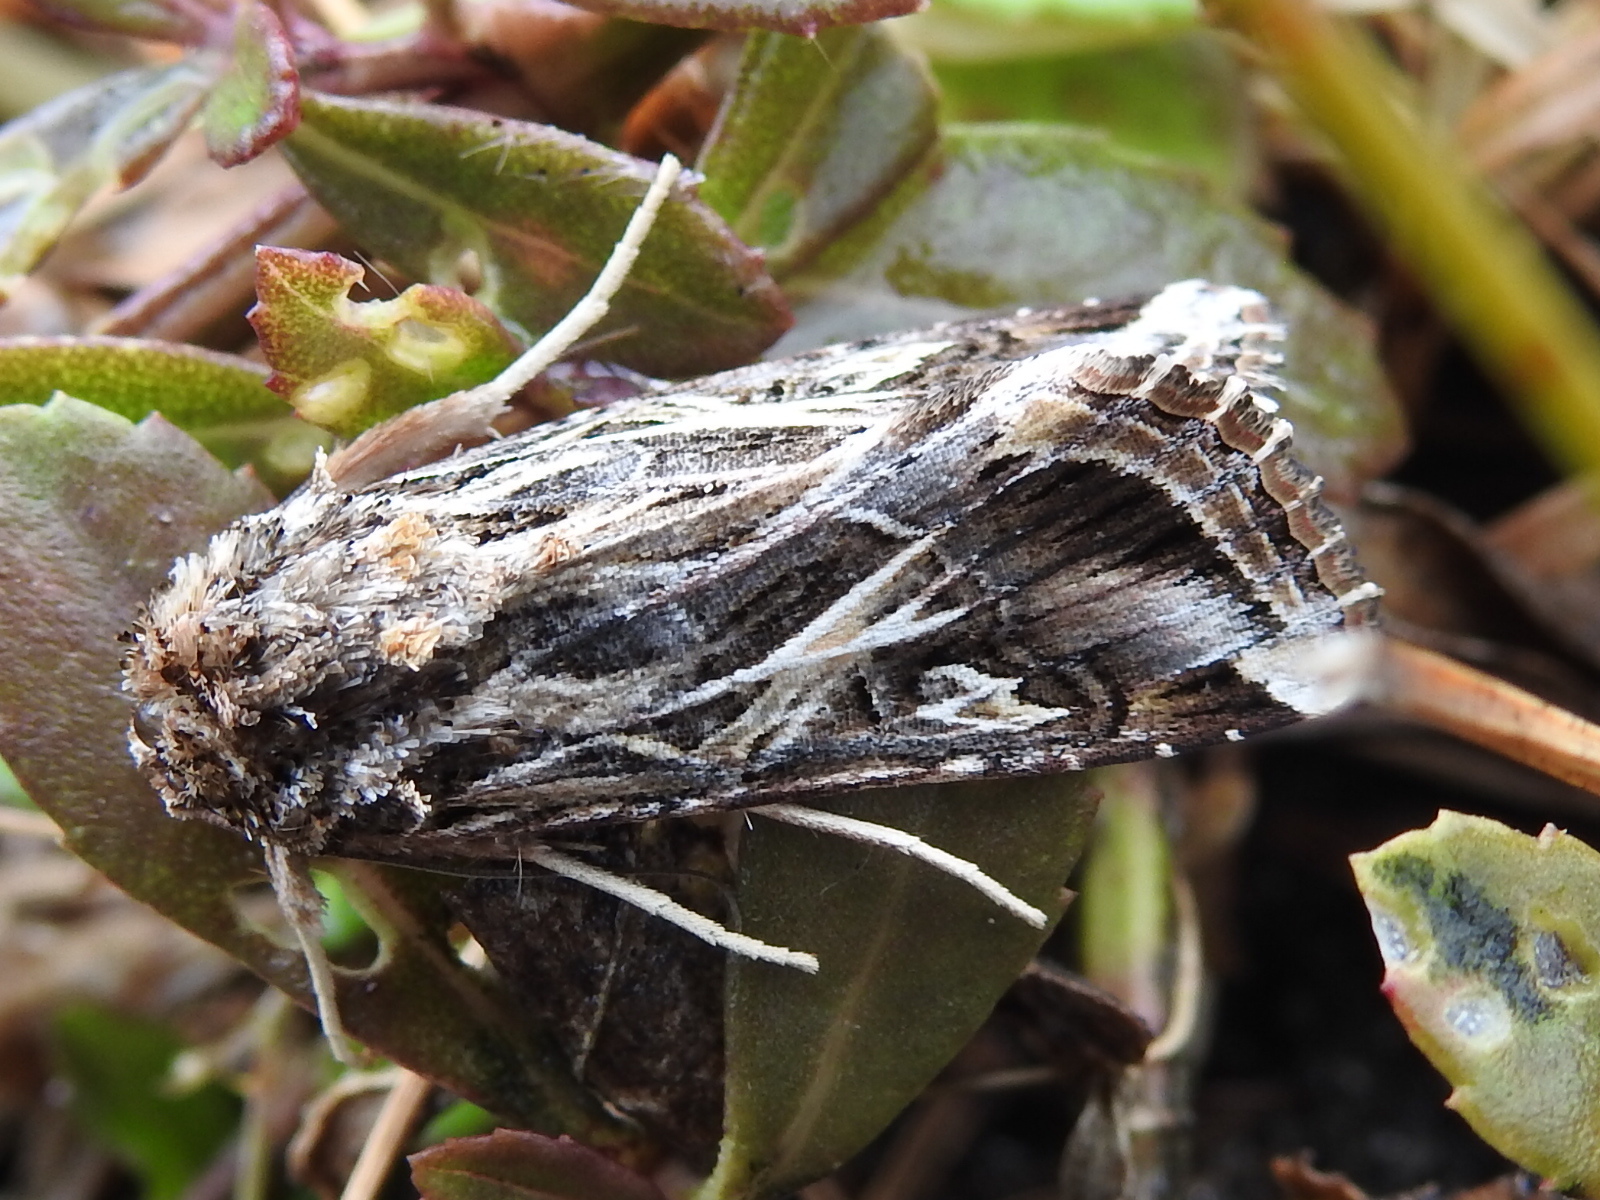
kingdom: Animalia
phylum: Arthropoda
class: Insecta
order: Lepidoptera
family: Noctuidae
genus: Spodoptera
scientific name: Spodoptera pulchella
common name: Caribbean armyworm moth
